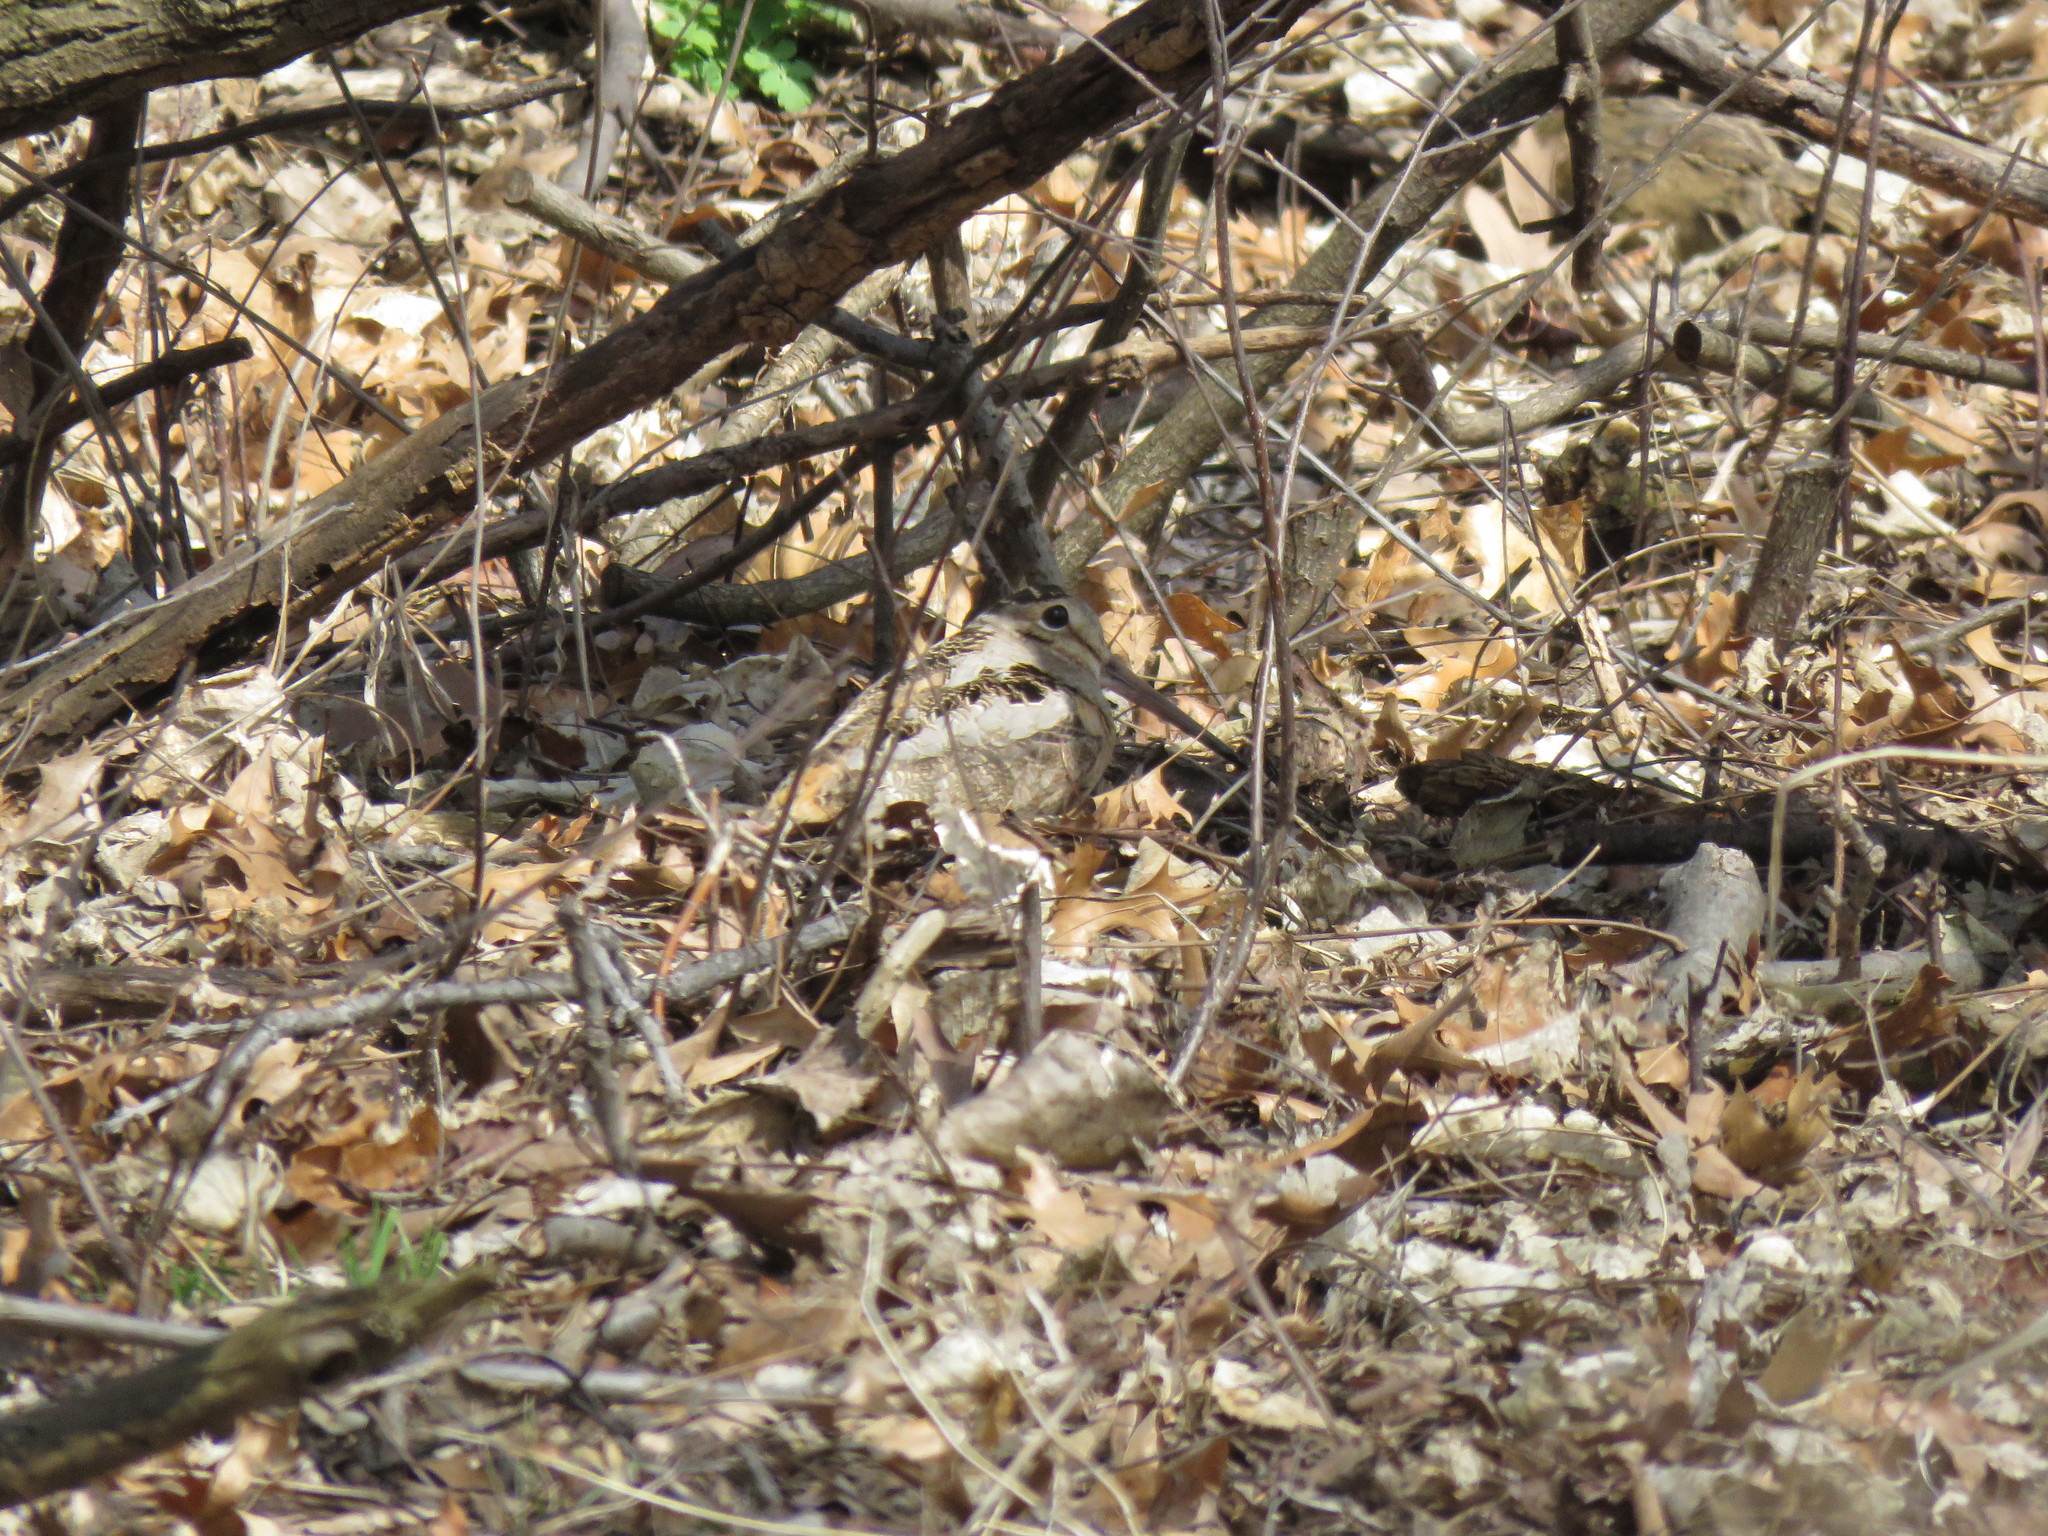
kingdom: Animalia
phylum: Chordata
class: Aves
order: Charadriiformes
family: Scolopacidae
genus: Scolopax
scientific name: Scolopax minor
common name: American woodcock
